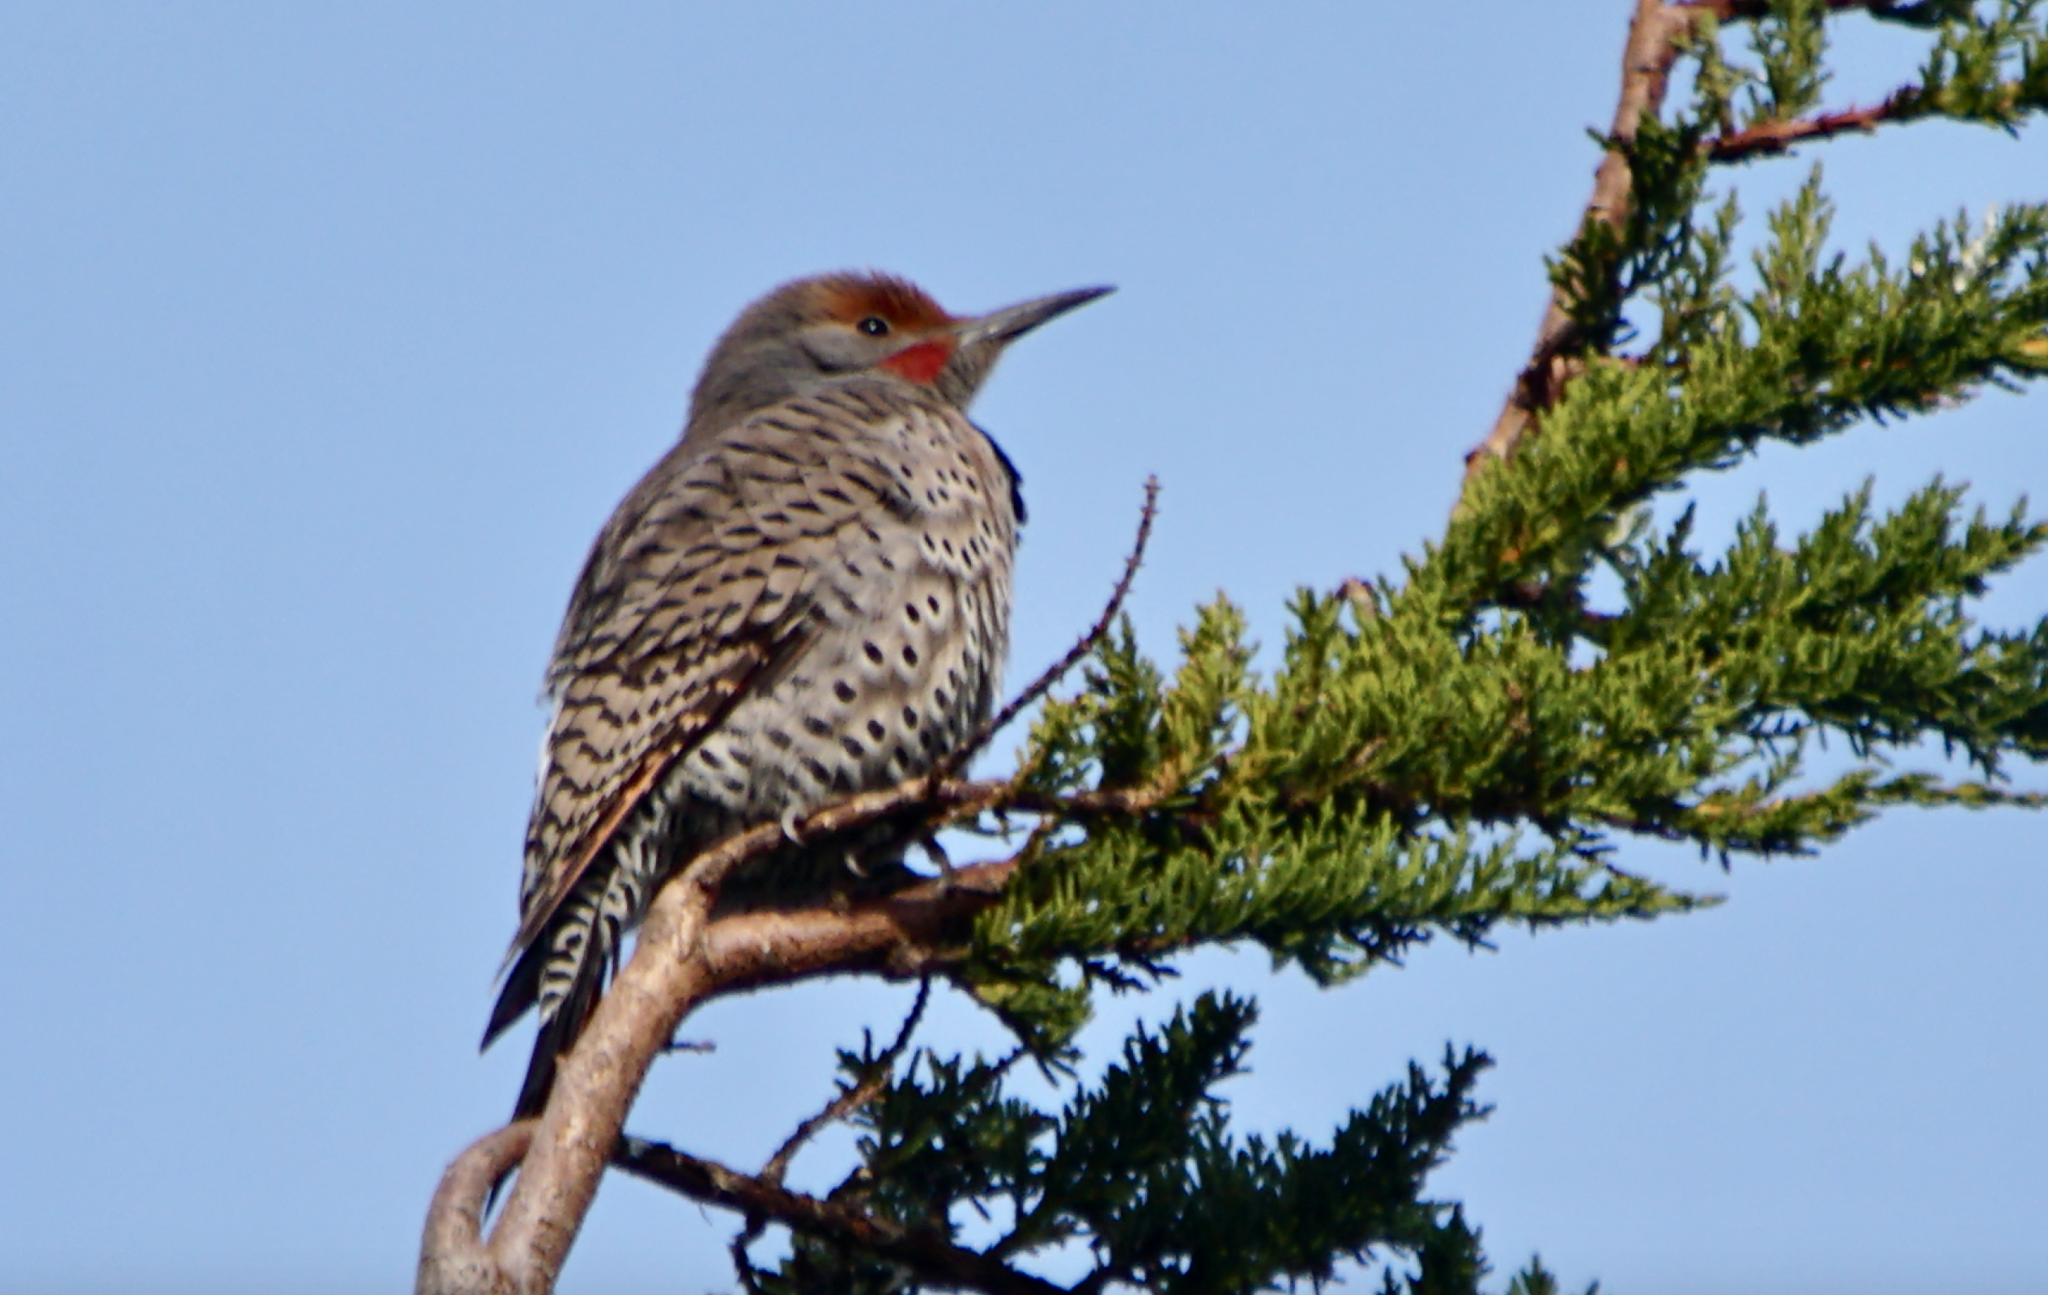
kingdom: Animalia
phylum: Chordata
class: Aves
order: Piciformes
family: Picidae
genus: Colaptes
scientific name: Colaptes auratus
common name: Northern flicker
